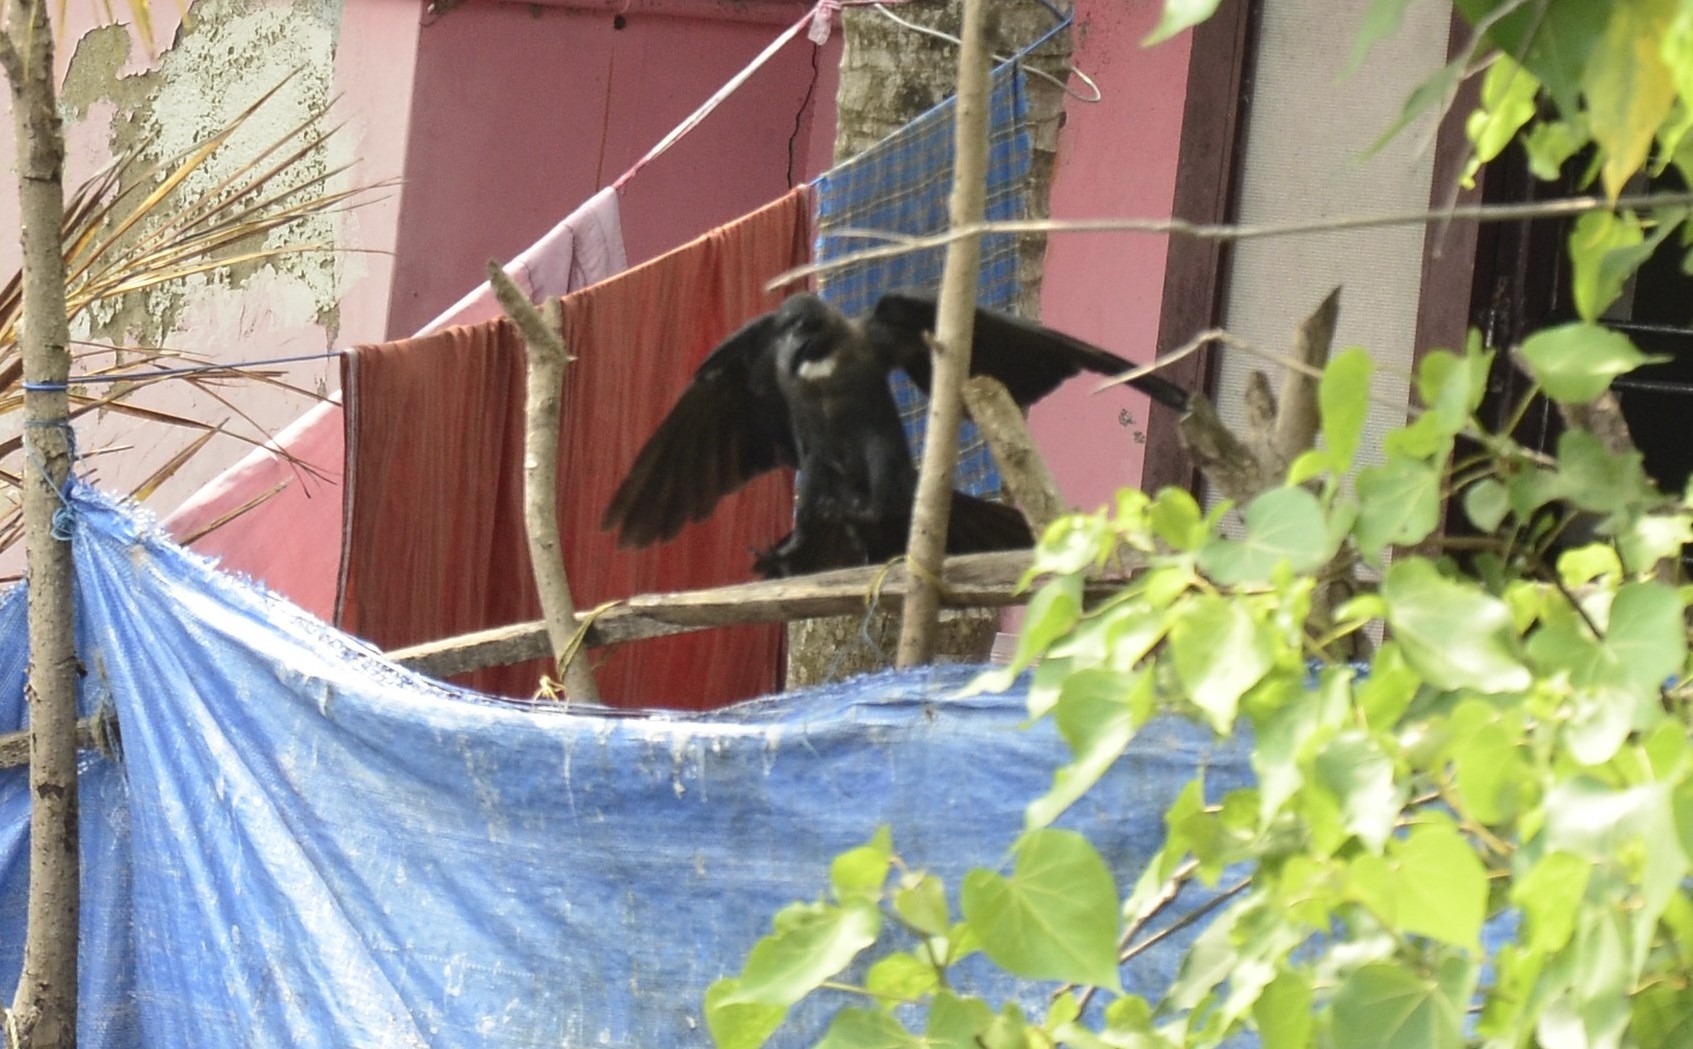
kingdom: Animalia
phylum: Chordata
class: Aves
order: Passeriformes
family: Corvidae
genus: Corvus
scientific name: Corvus splendens
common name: House crow
